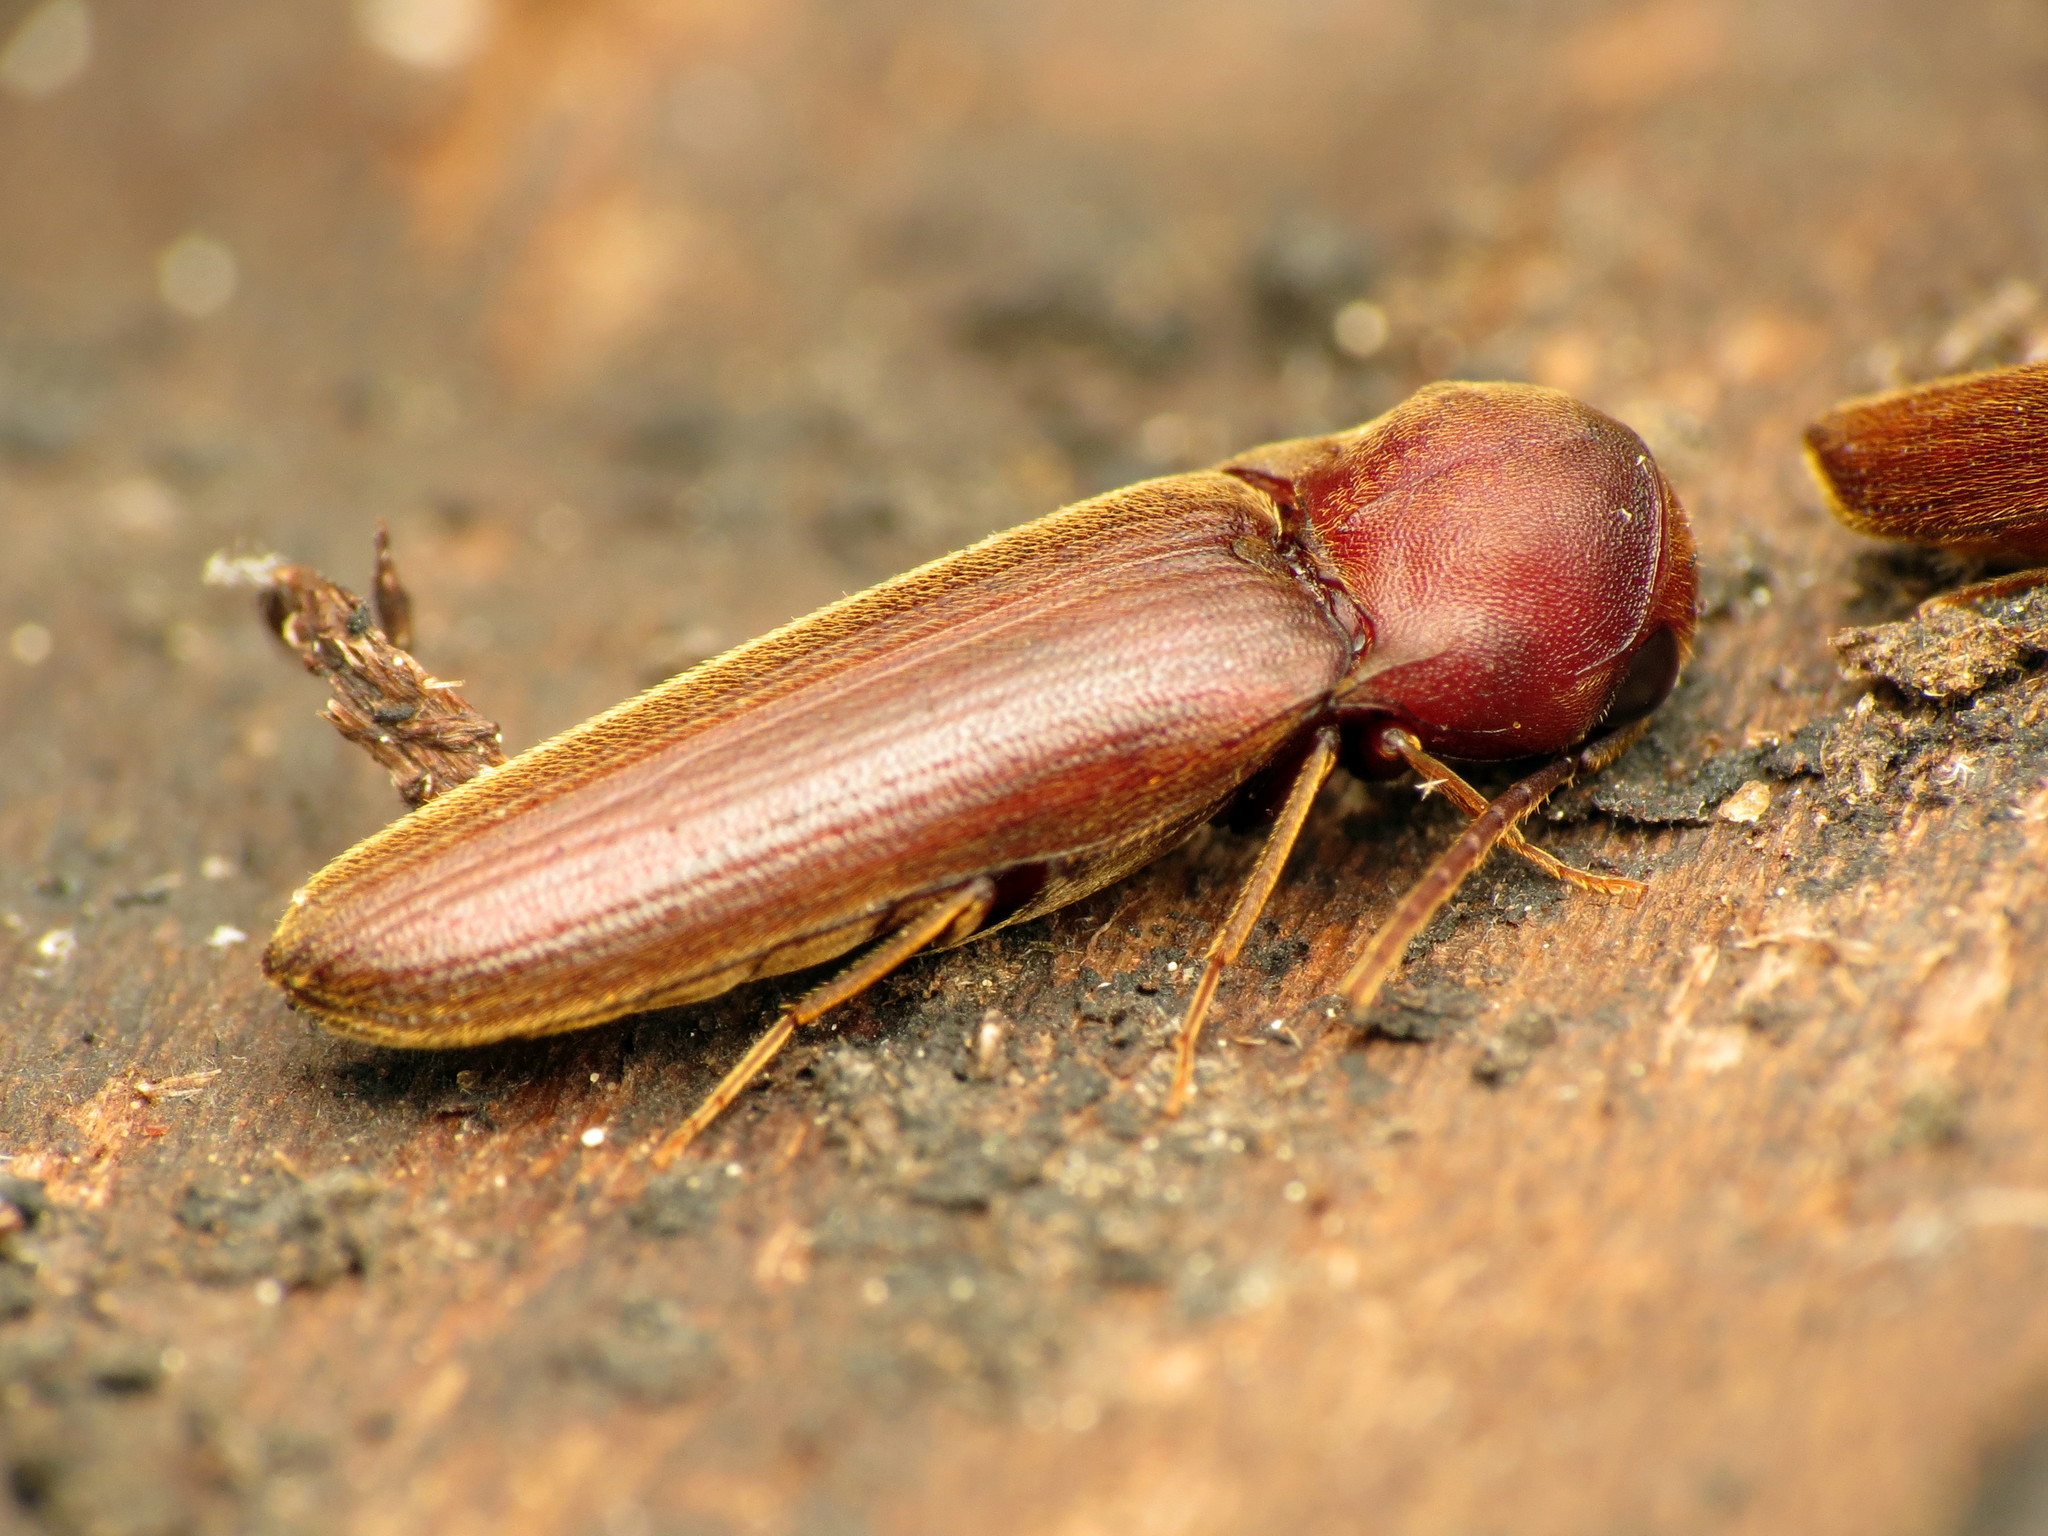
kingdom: Animalia
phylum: Arthropoda
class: Insecta
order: Coleoptera
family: Eucnemidae
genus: Dirrhagofarsus
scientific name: Dirrhagofarsus lewisi
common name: False click beetle
